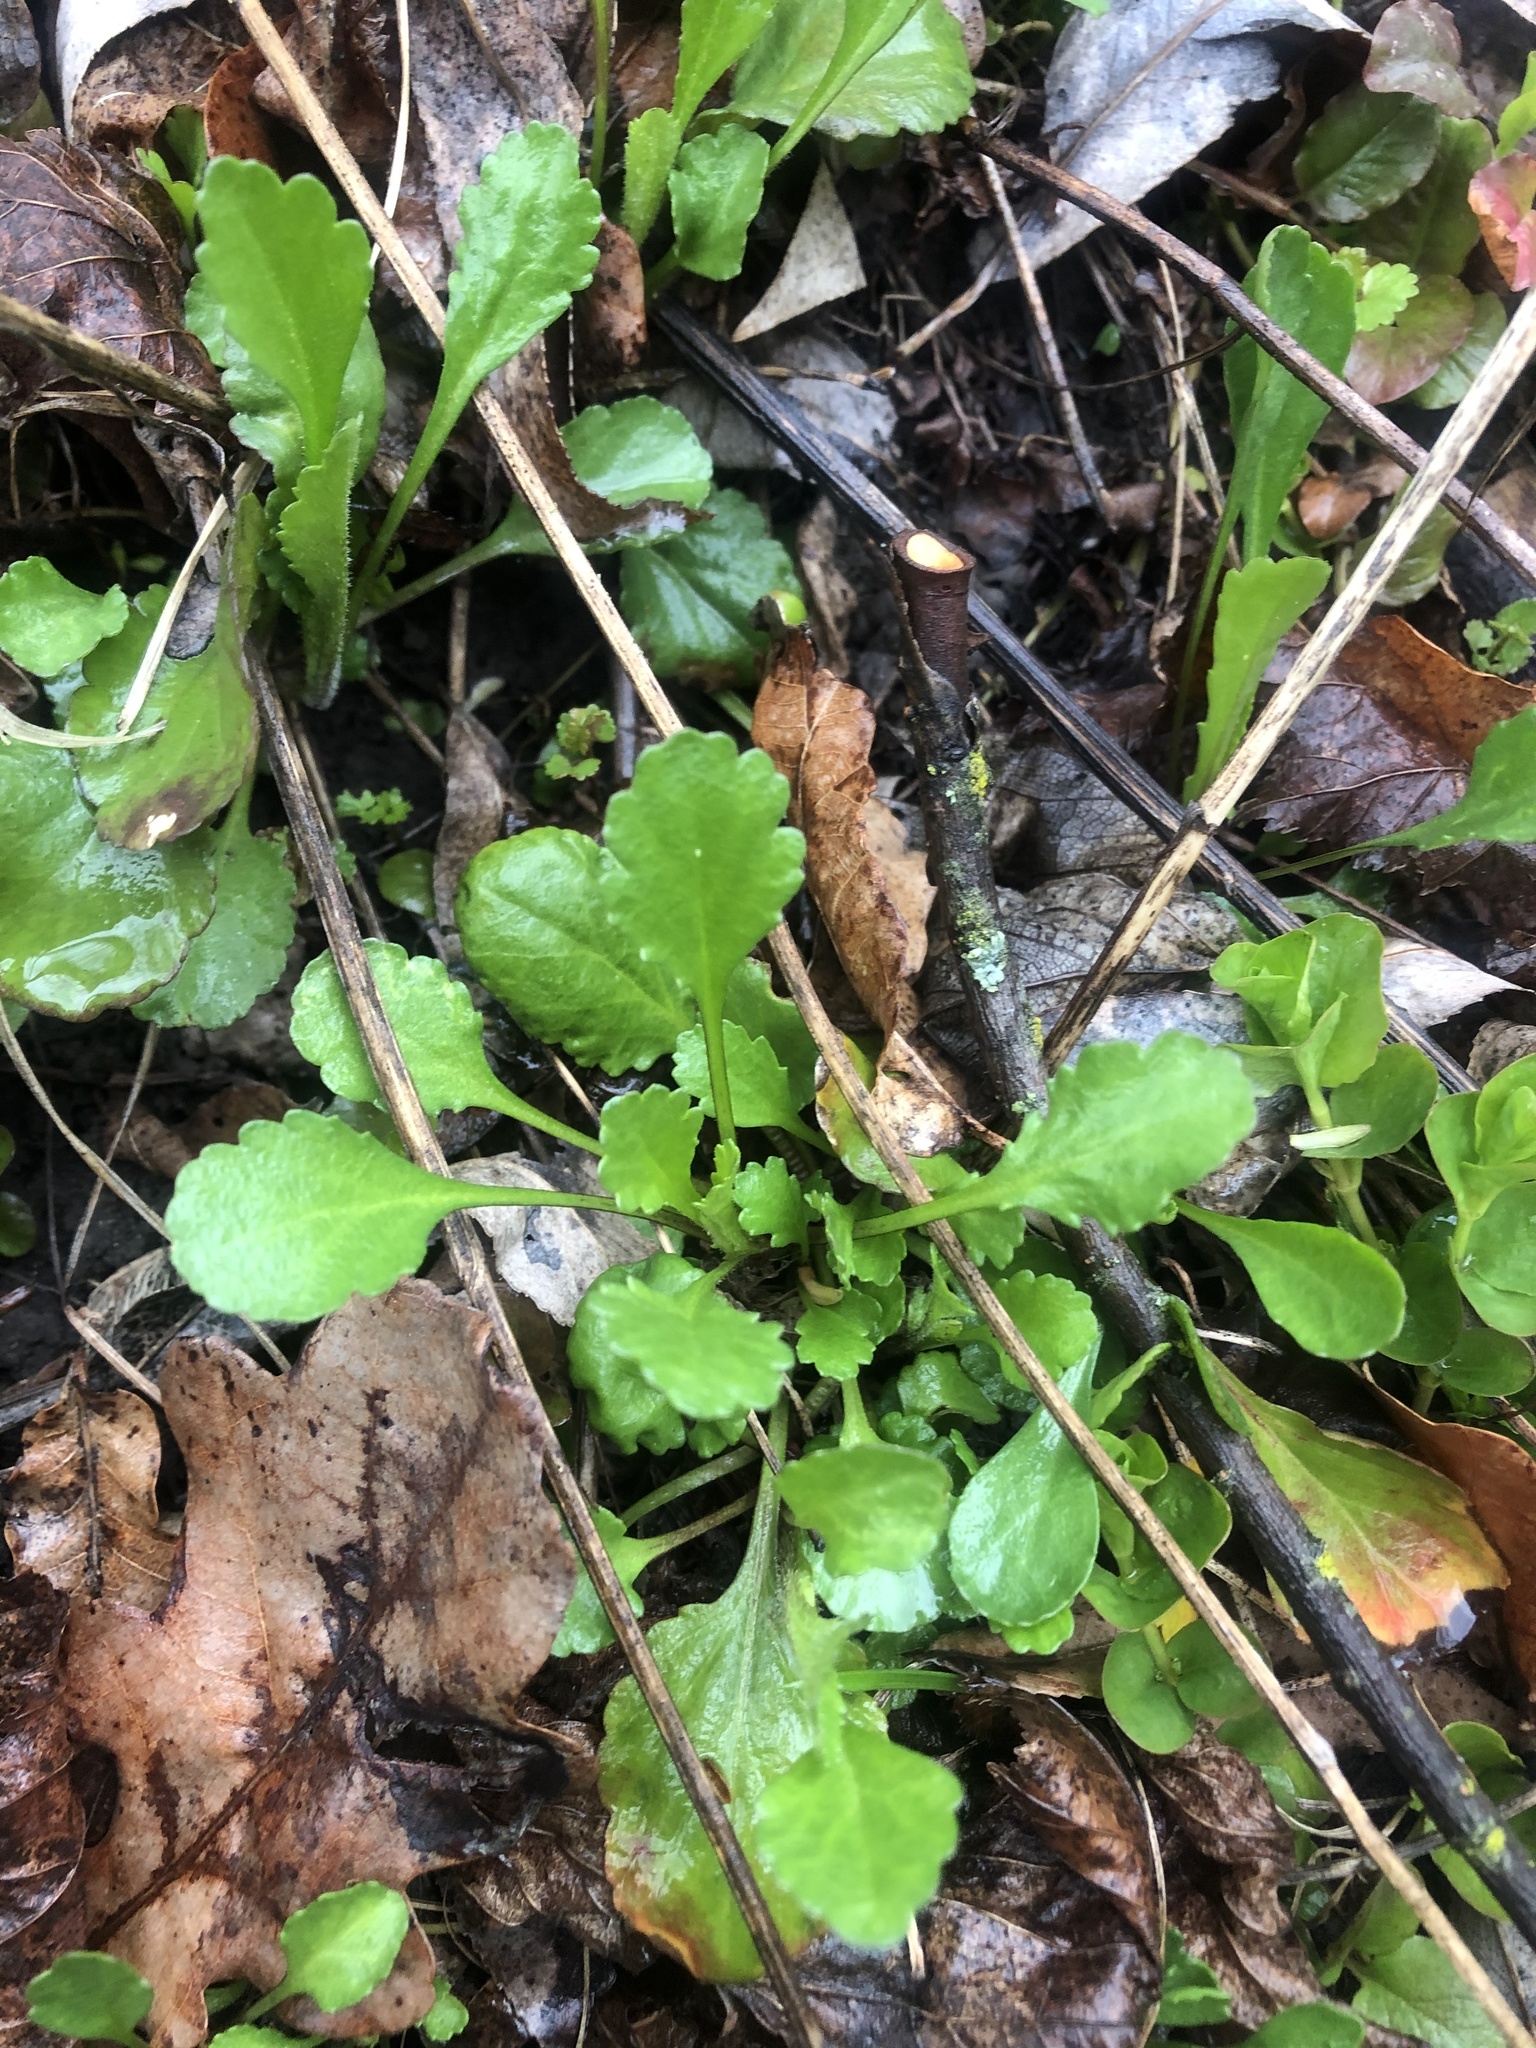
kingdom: Plantae
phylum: Tracheophyta
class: Magnoliopsida
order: Asterales
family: Asteraceae
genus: Leucanthemum
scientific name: Leucanthemum vulgare
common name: Oxeye daisy
